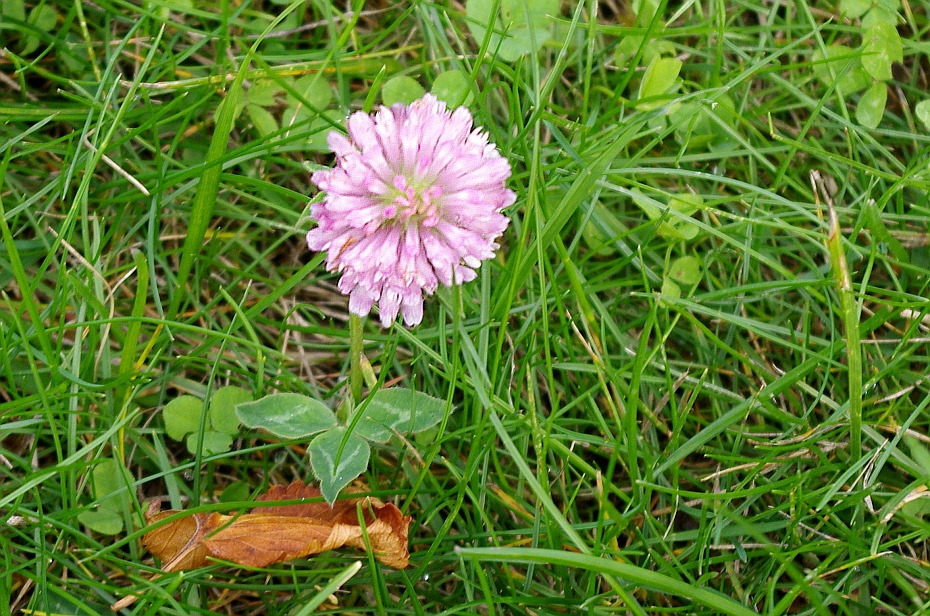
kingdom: Plantae
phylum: Tracheophyta
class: Magnoliopsida
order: Fabales
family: Fabaceae
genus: Trifolium
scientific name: Trifolium pratense
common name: Red clover
